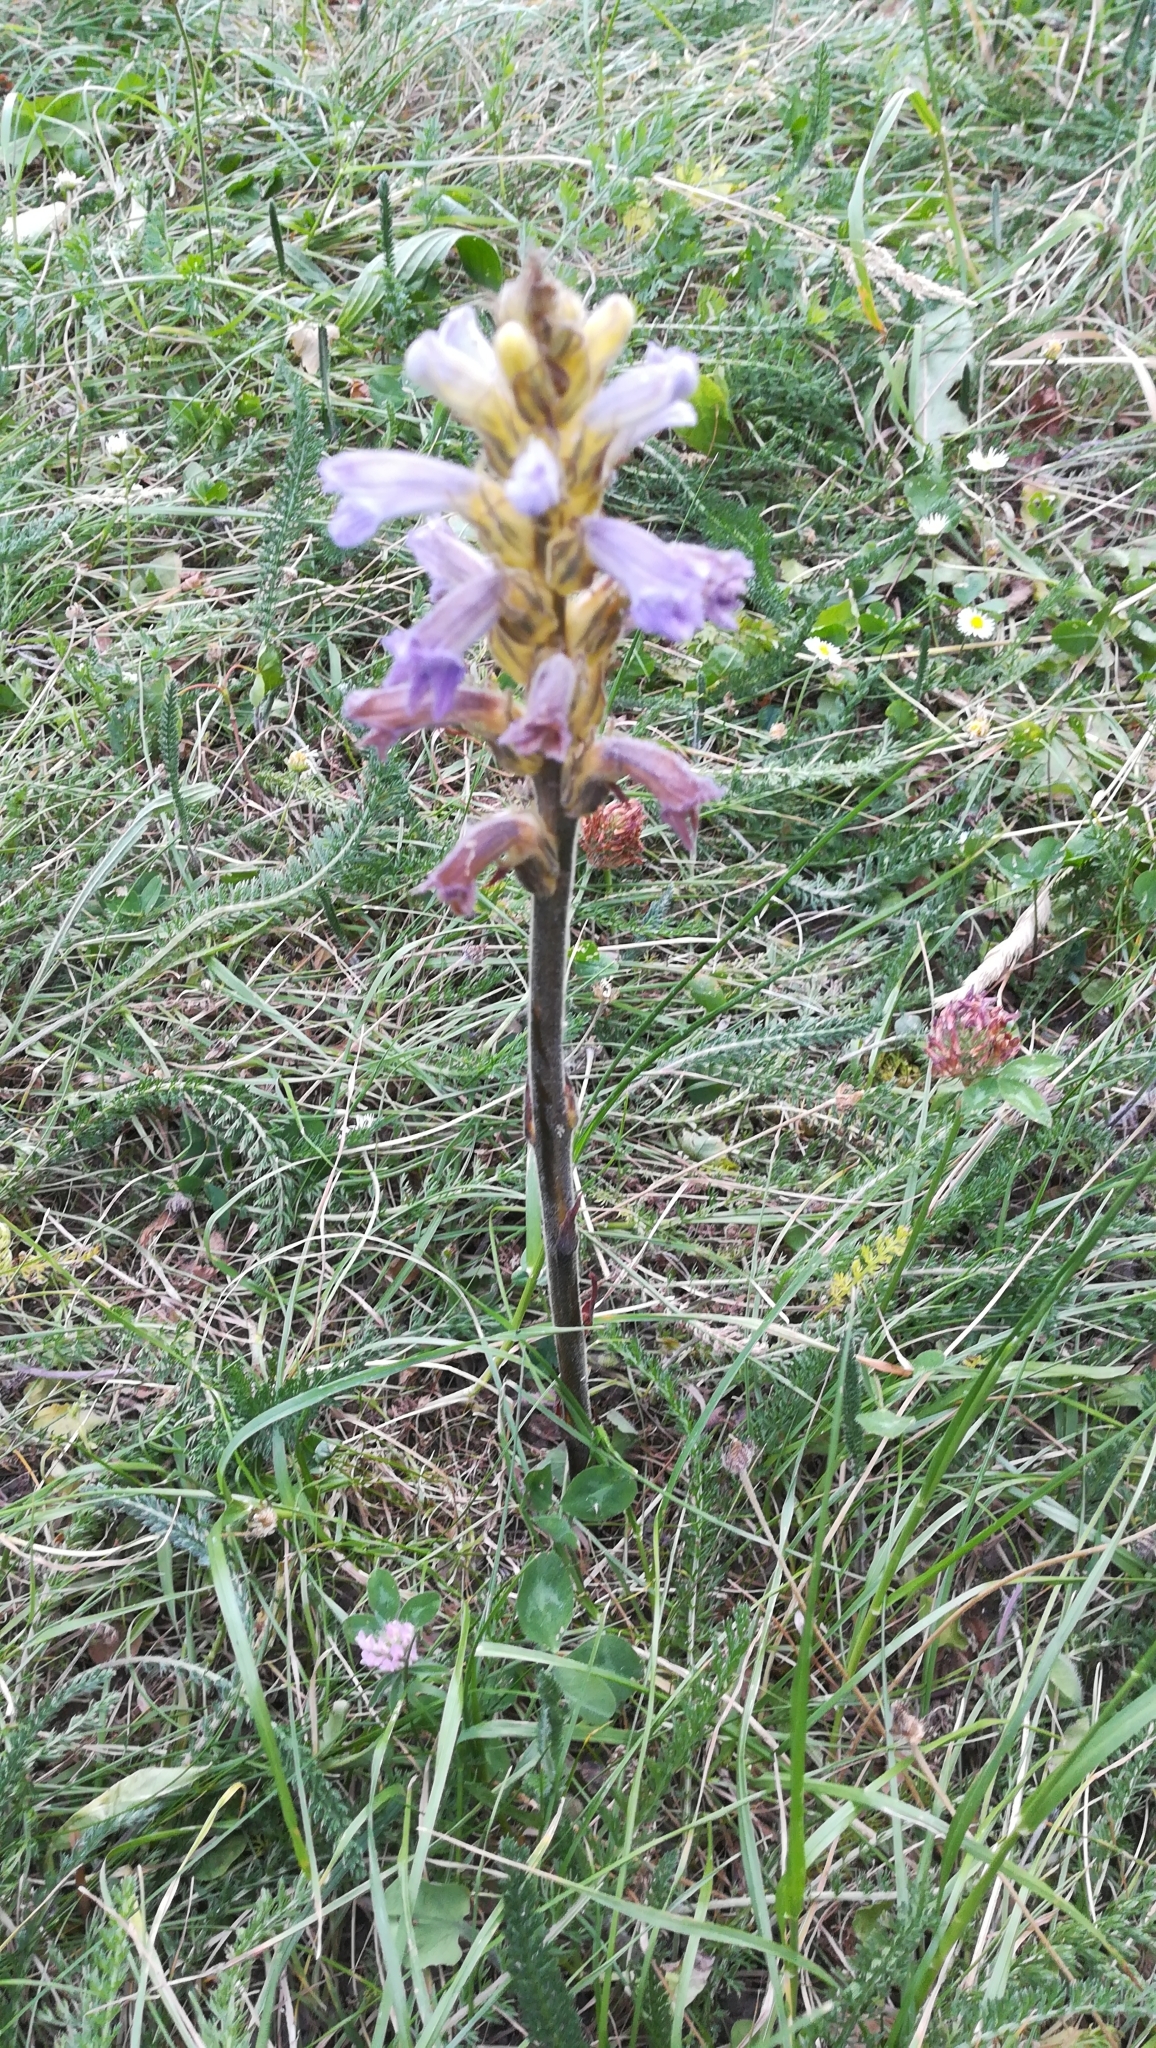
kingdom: Plantae
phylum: Tracheophyta
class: Magnoliopsida
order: Lamiales
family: Orobanchaceae
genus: Phelipanche
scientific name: Phelipanche purpurea
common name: Purple broomrape
